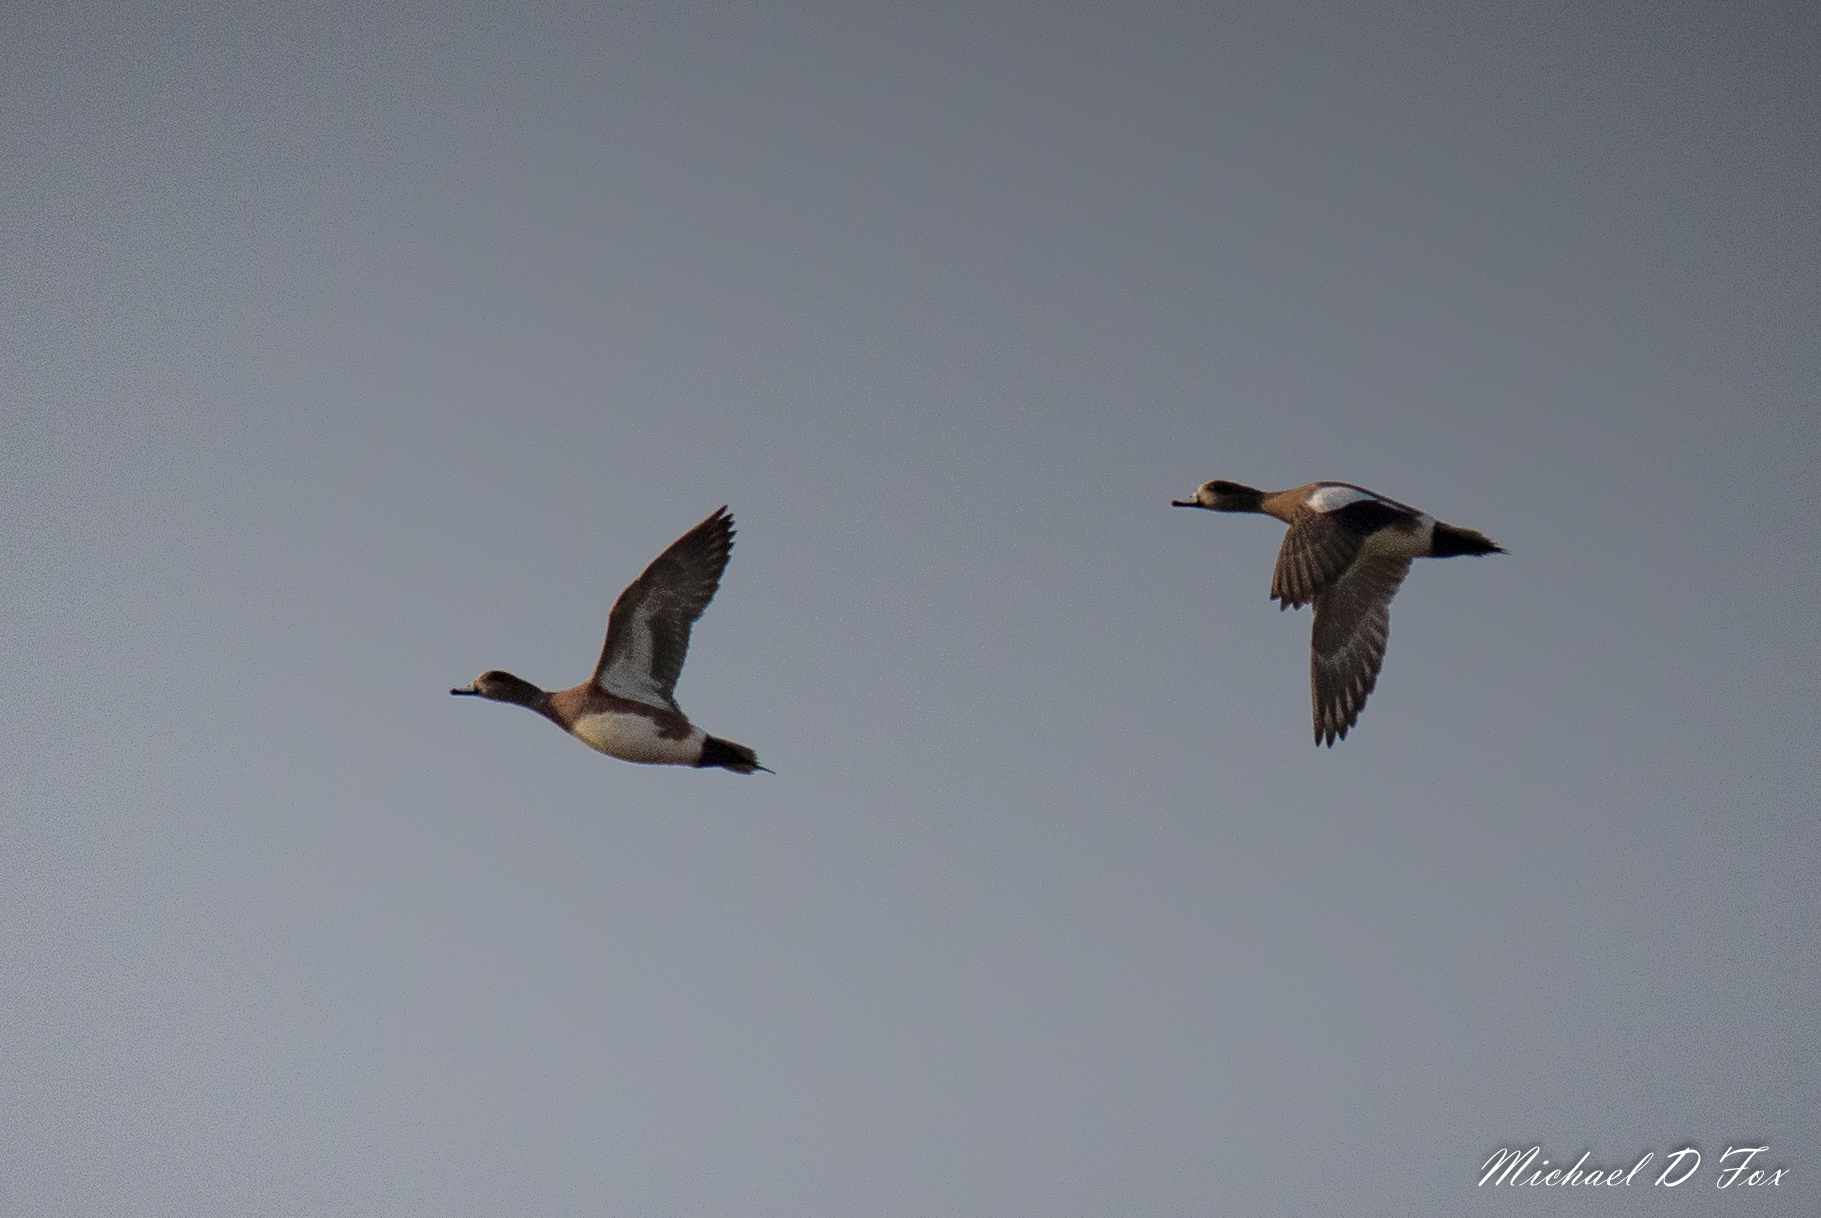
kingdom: Animalia
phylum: Chordata
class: Aves
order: Anseriformes
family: Anatidae
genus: Mareca
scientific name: Mareca americana
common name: American wigeon
